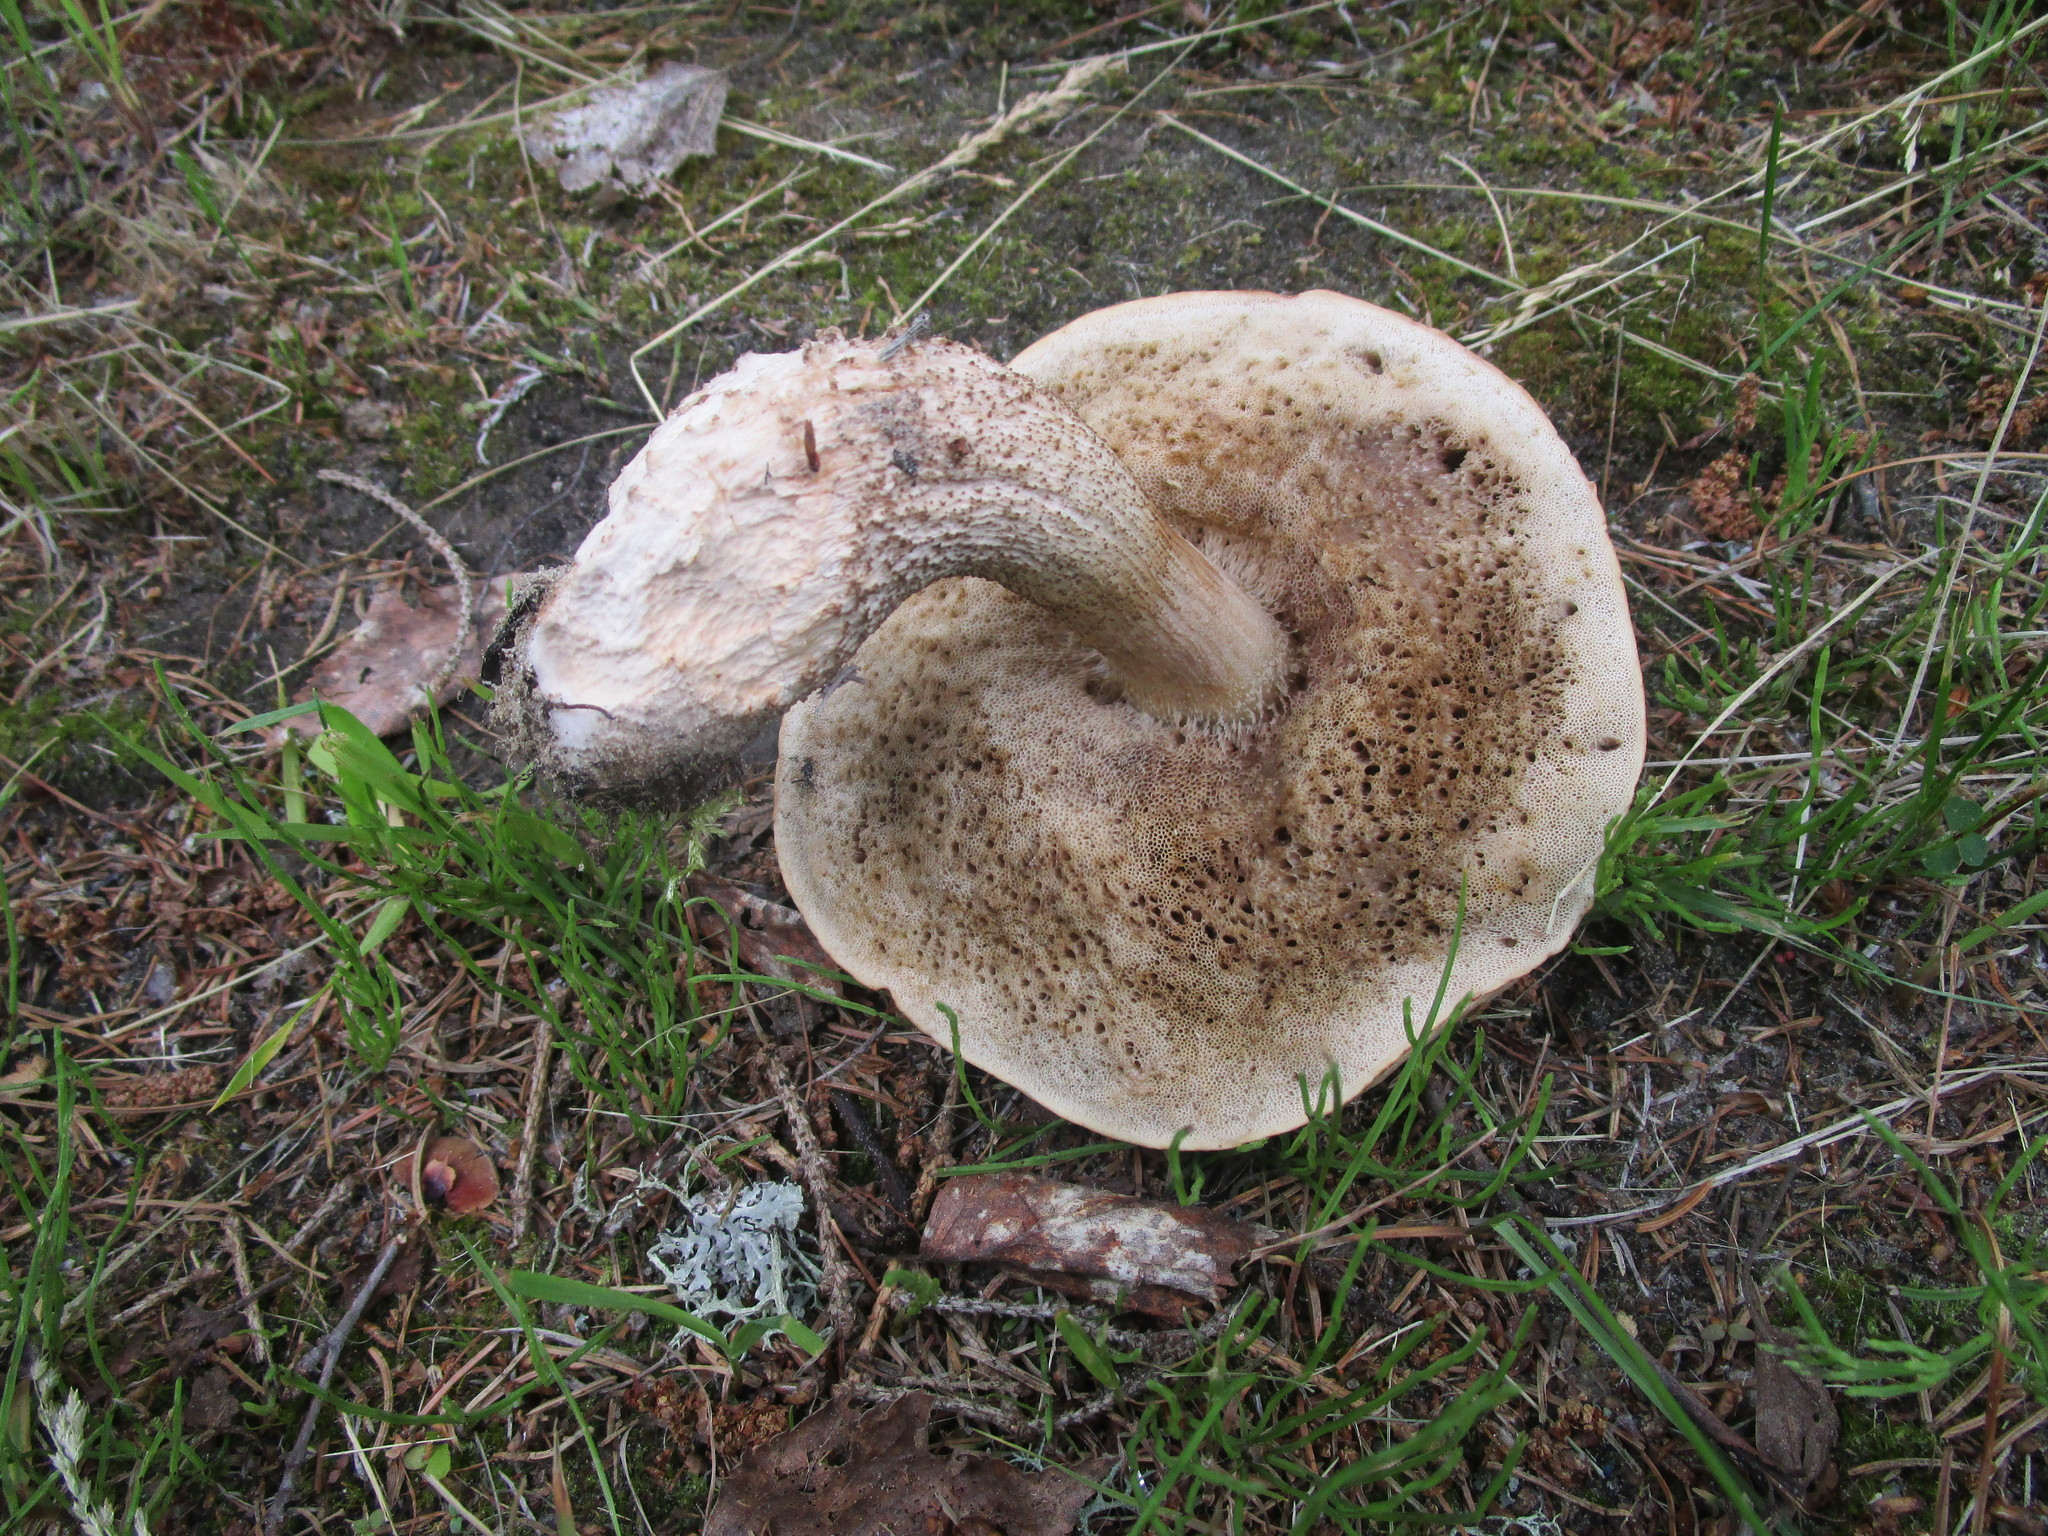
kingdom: Fungi
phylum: Basidiomycota
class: Agaricomycetes
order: Boletales
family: Boletaceae
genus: Leccinum
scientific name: Leccinum scabrum
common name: Blushing bolete
